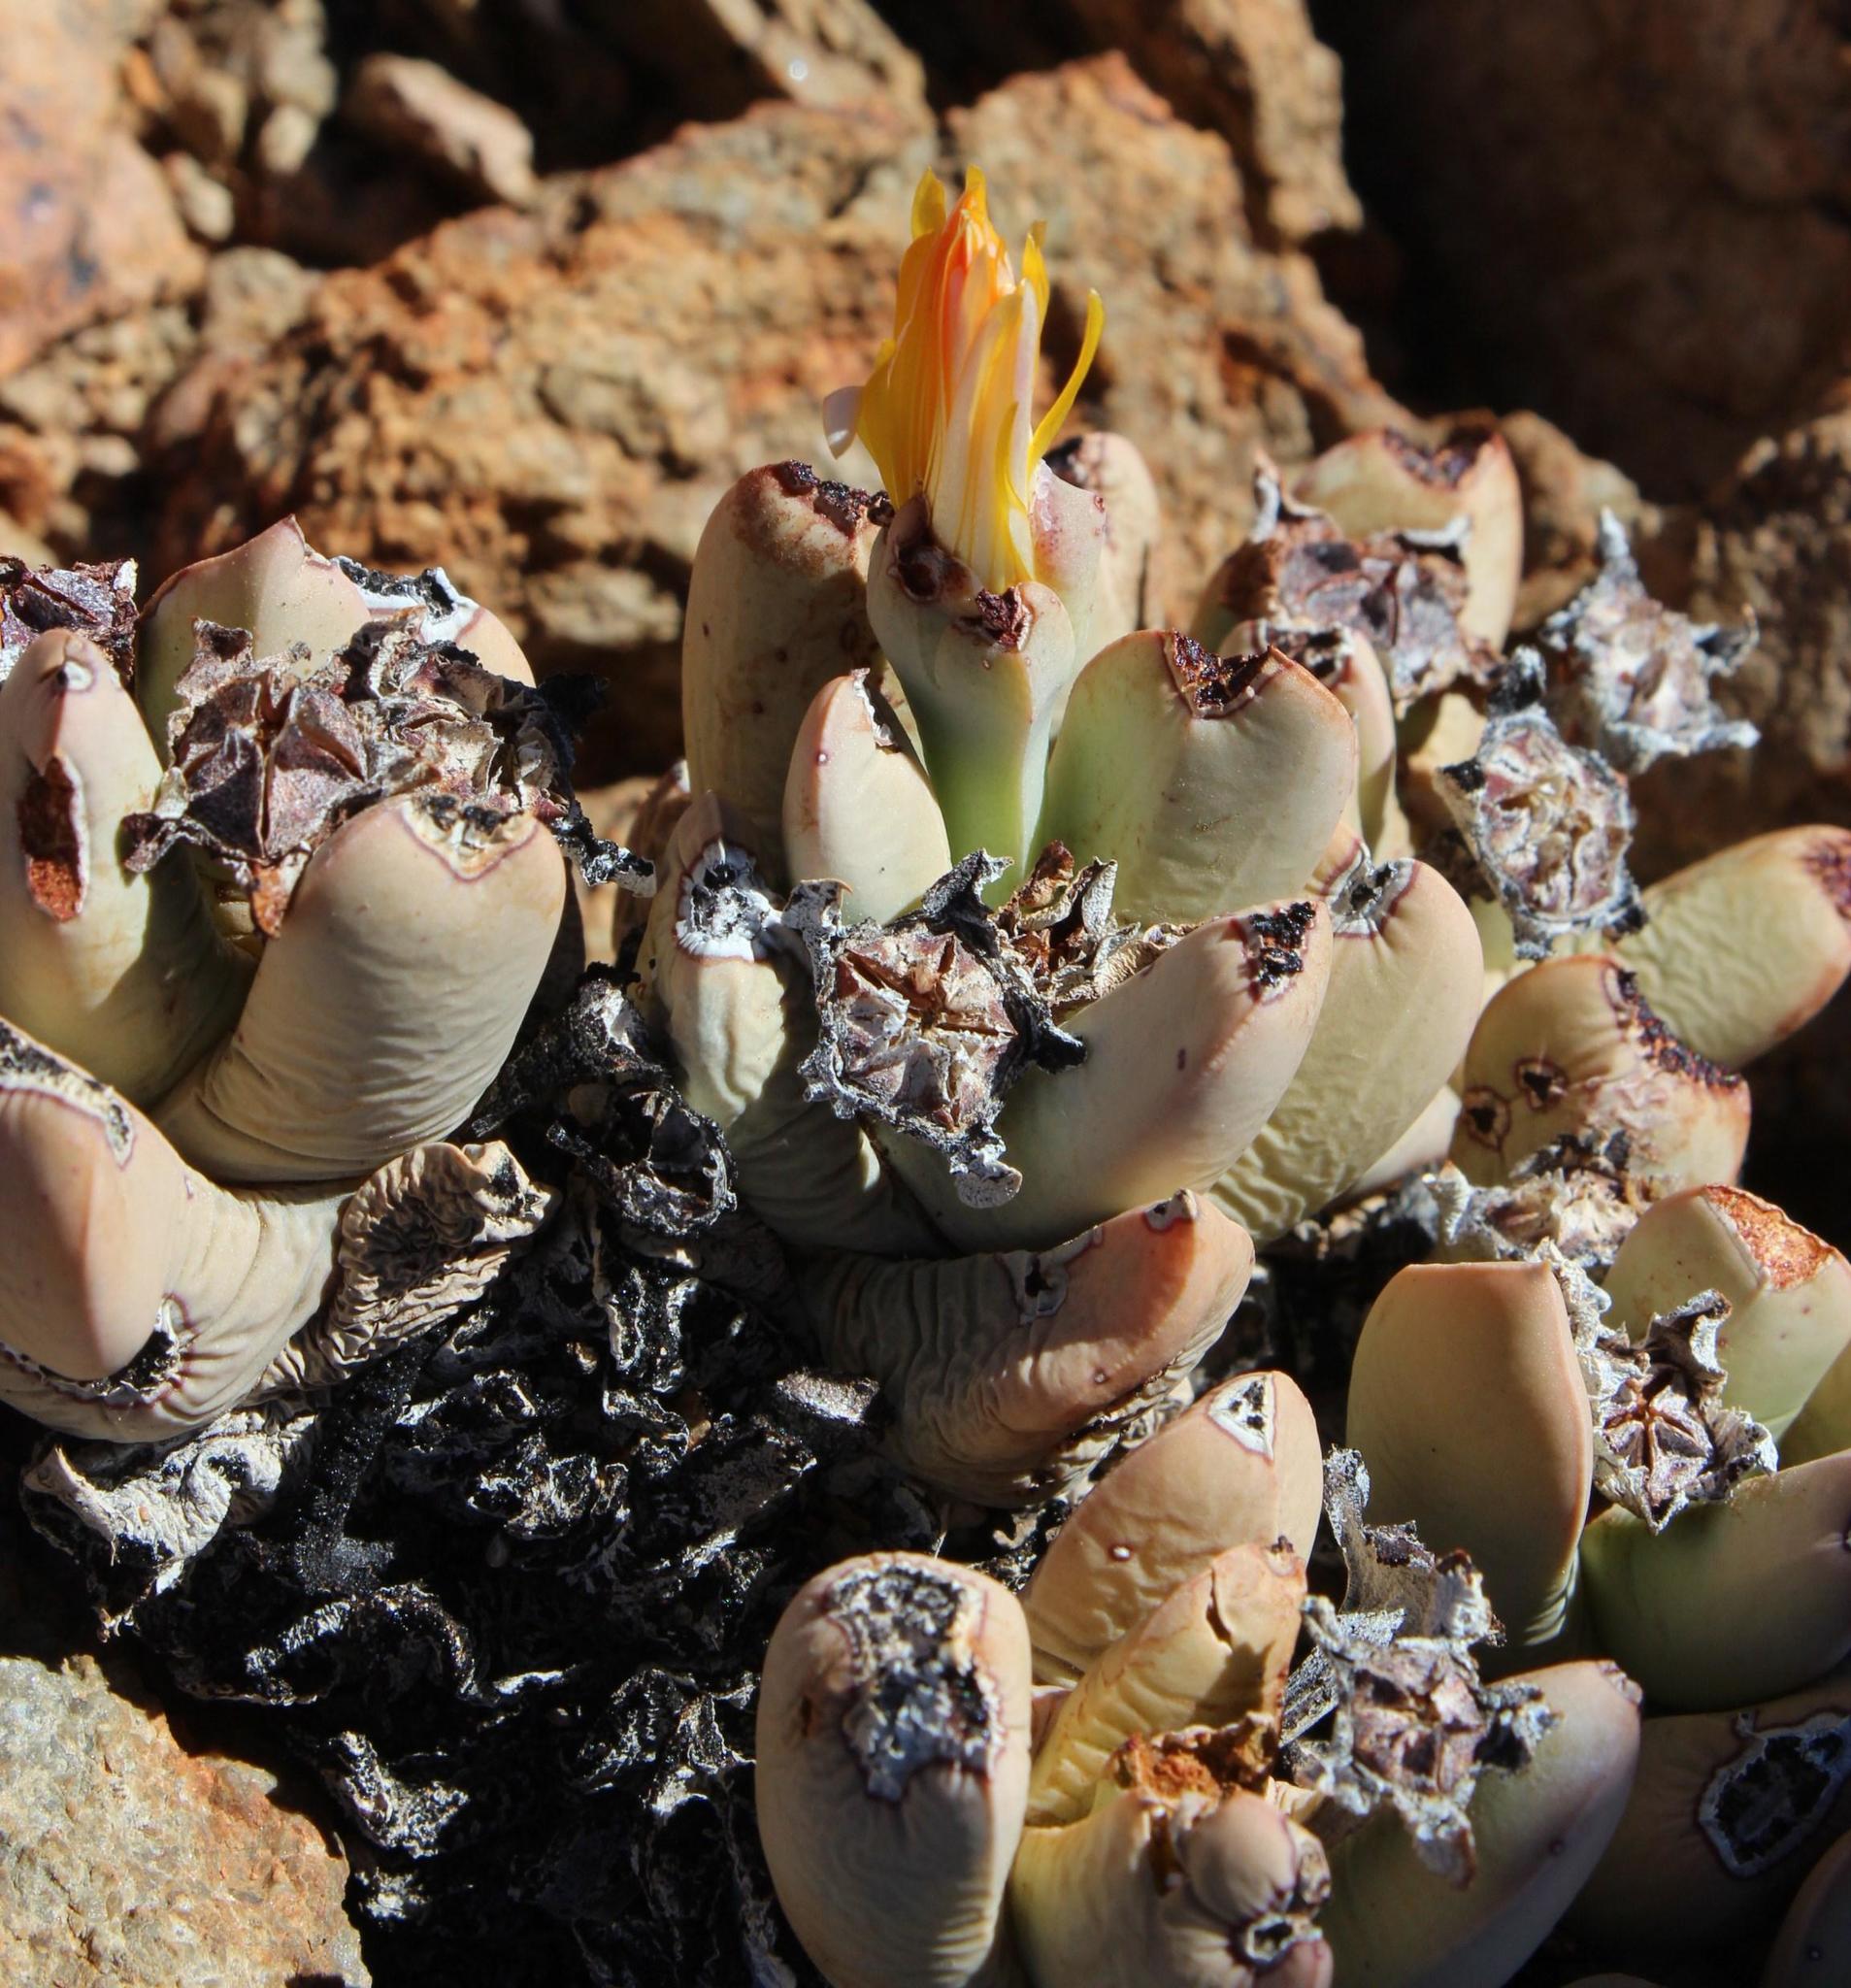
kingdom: Plantae
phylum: Tracheophyta
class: Magnoliopsida
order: Caryophyllales
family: Aizoaceae
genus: Schwantesia
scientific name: Schwantesia herrei
